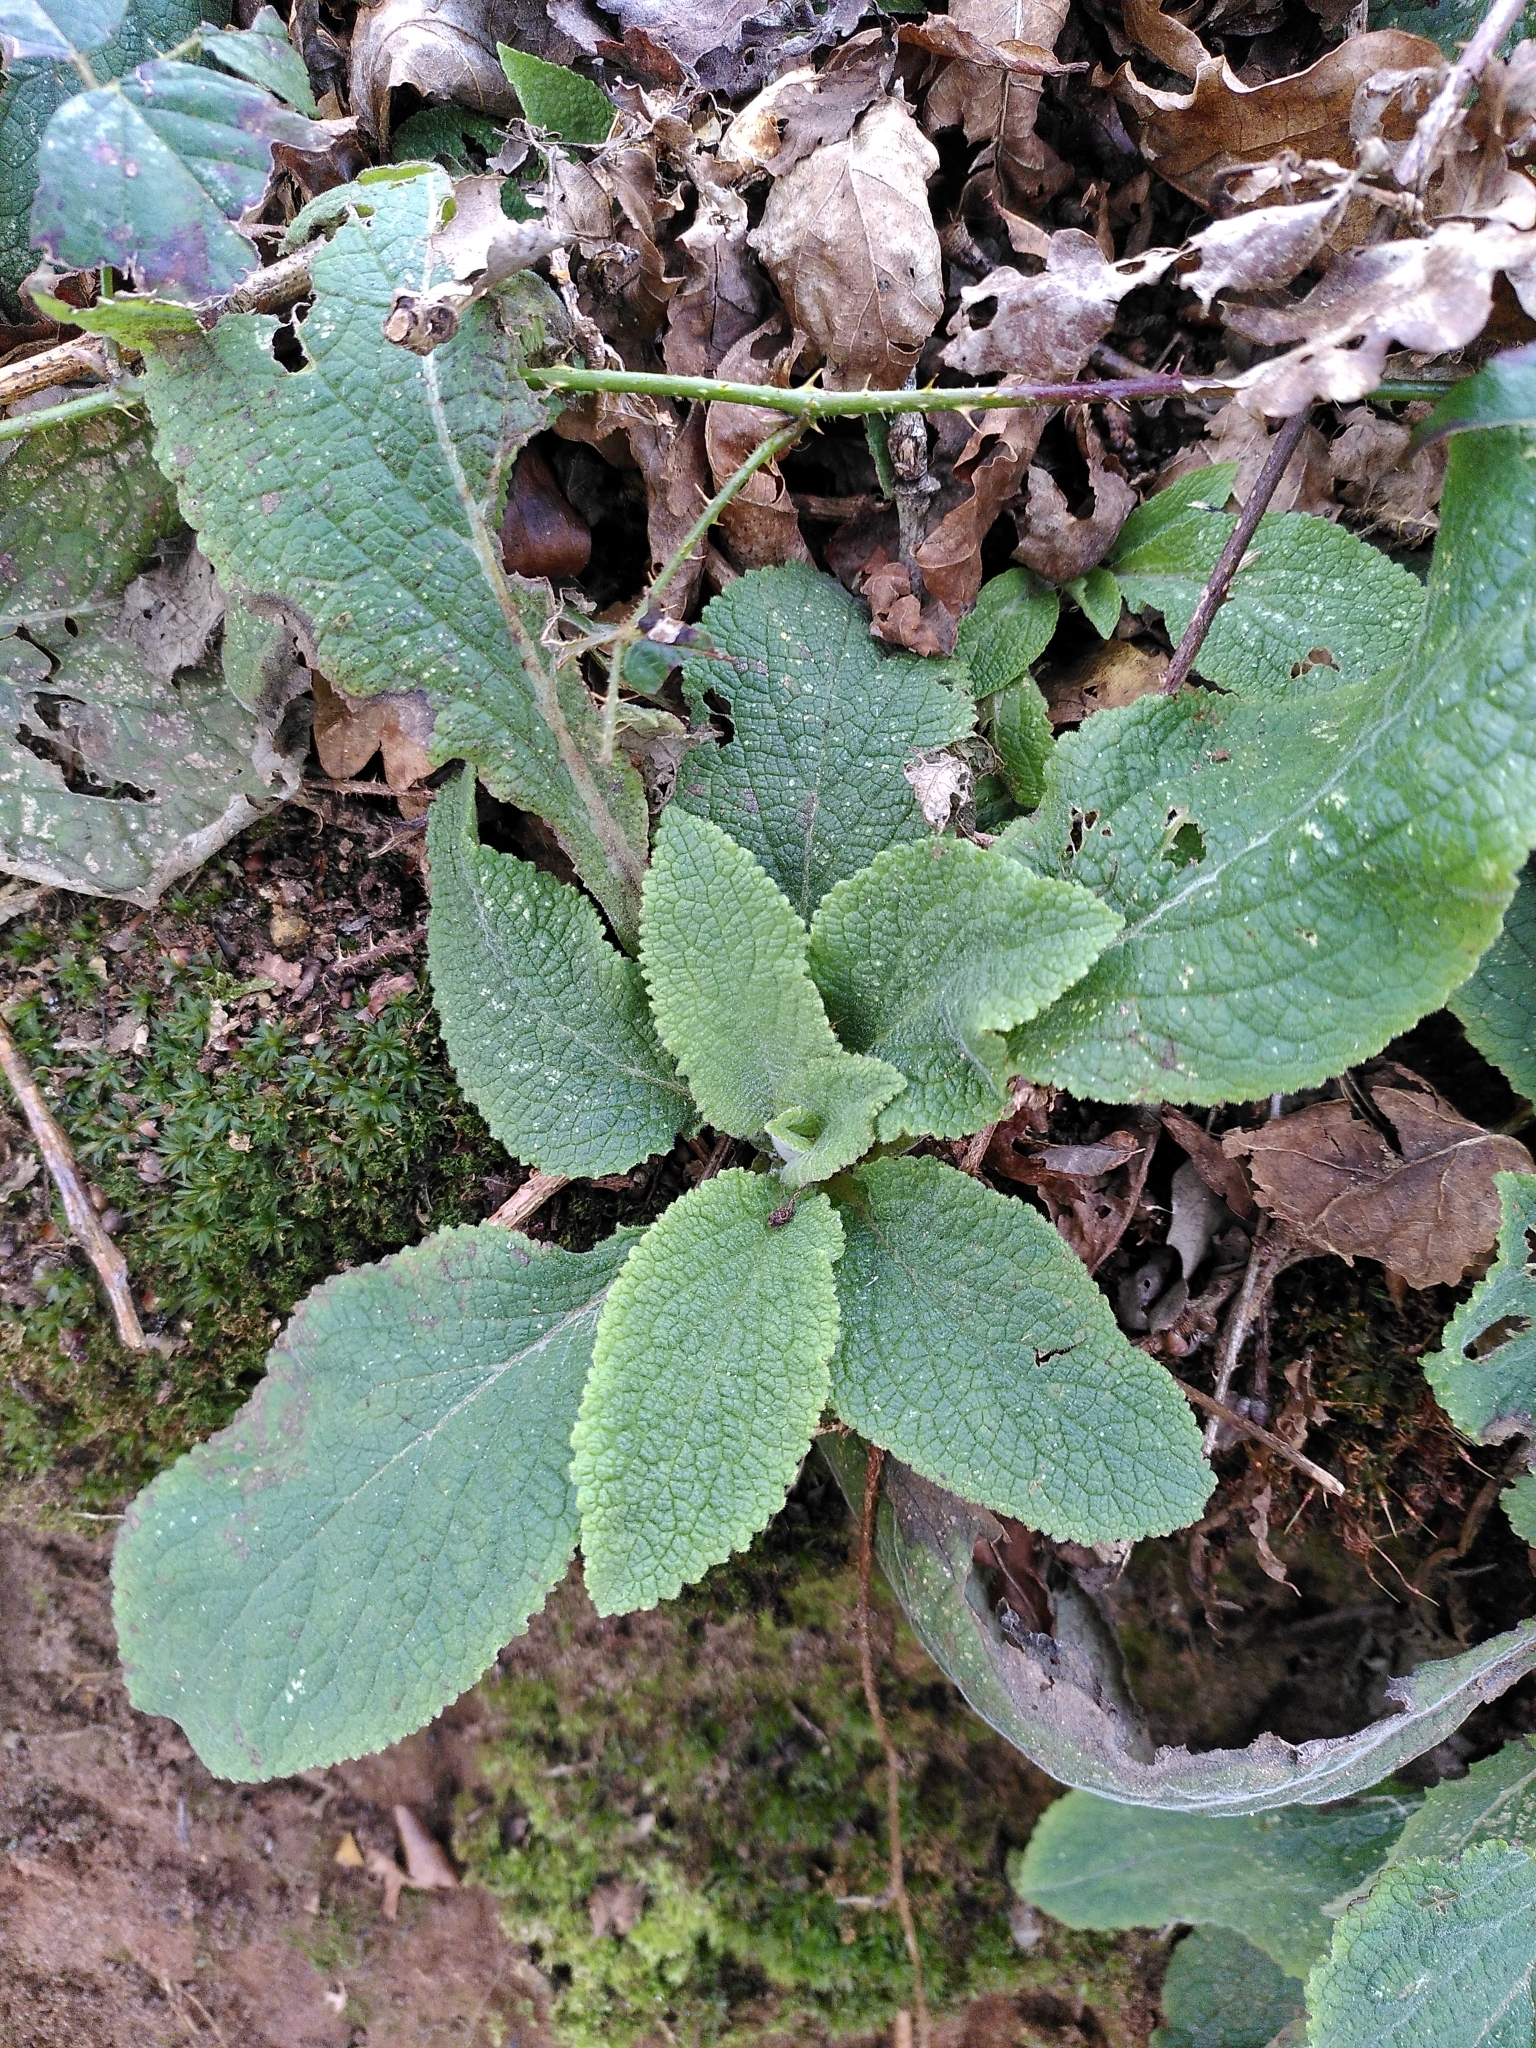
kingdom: Plantae
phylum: Tracheophyta
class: Magnoliopsida
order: Lamiales
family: Plantaginaceae
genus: Digitalis
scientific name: Digitalis purpurea
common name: Foxglove
